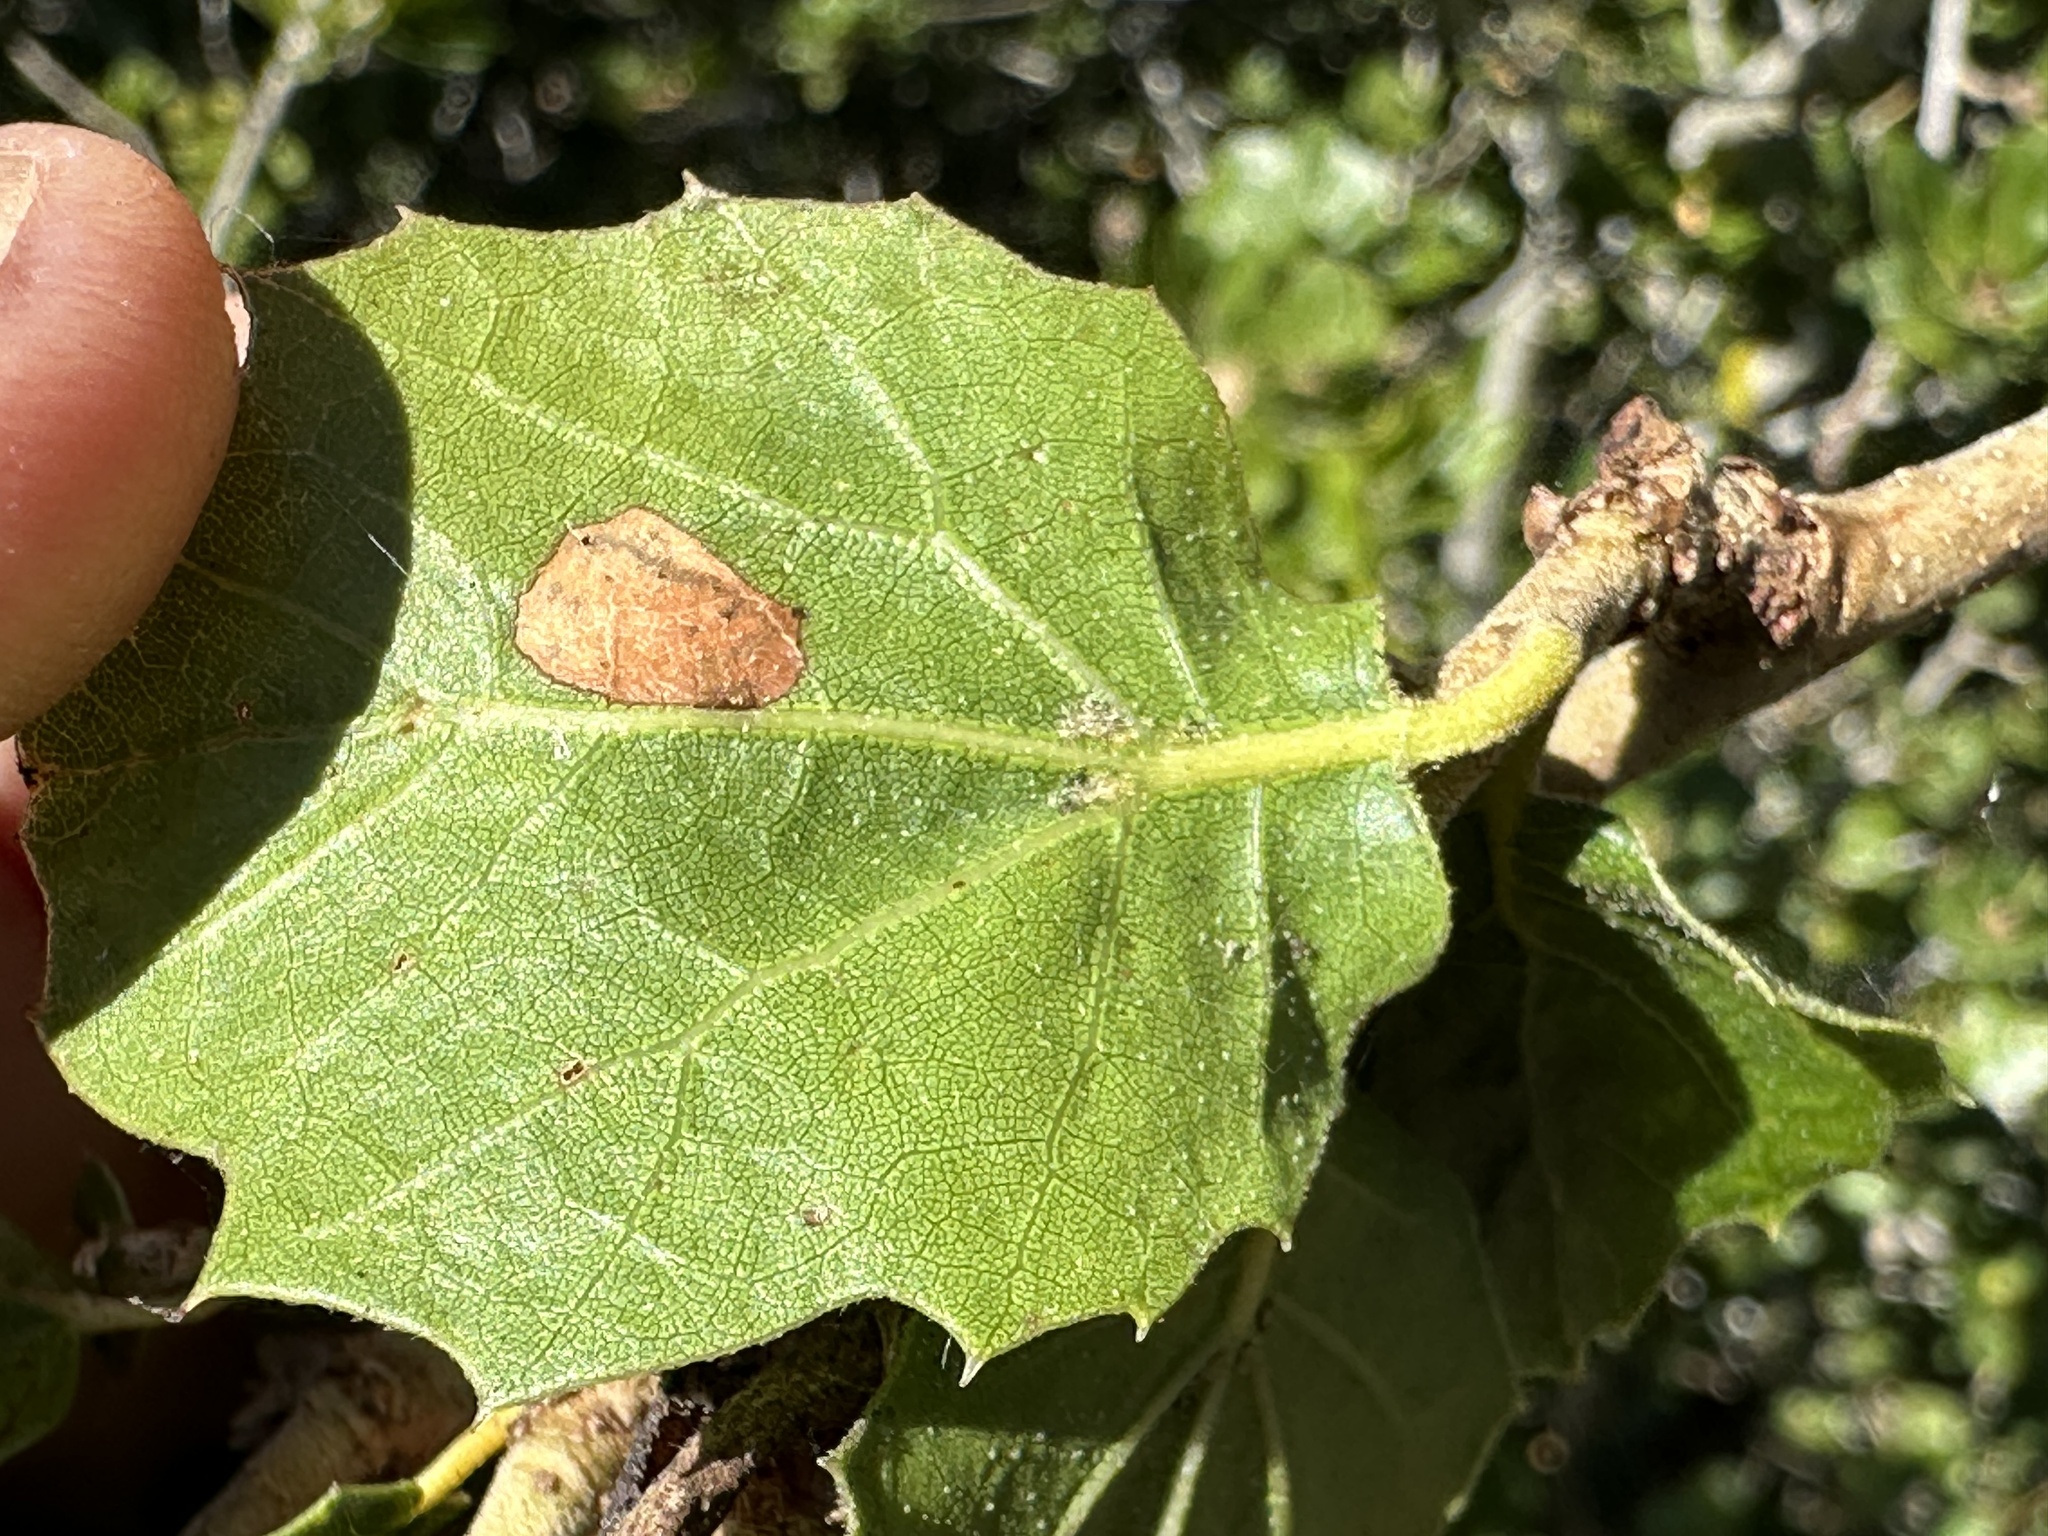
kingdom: Plantae
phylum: Tracheophyta
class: Magnoliopsida
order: Fagales
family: Fagaceae
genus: Quercus
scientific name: Quercus agrifolia
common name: California live oak
